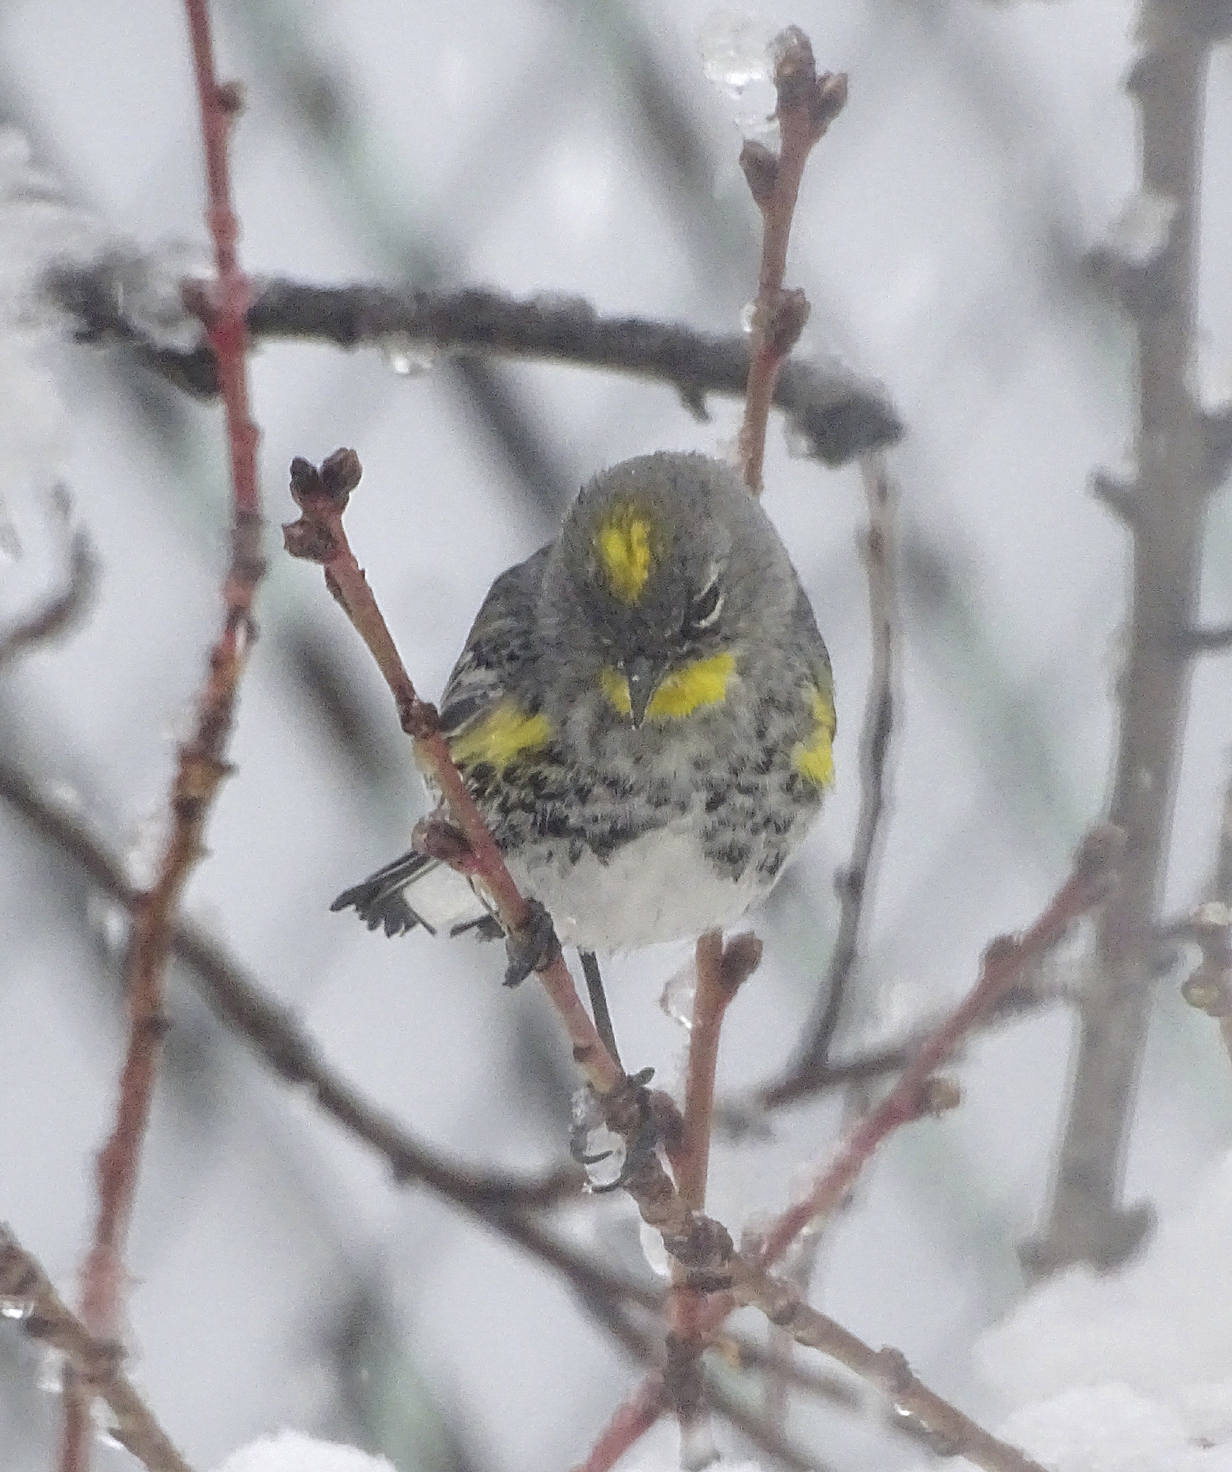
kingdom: Animalia
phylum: Chordata
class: Aves
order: Passeriformes
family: Parulidae
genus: Setophaga
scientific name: Setophaga coronata
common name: Myrtle warbler
